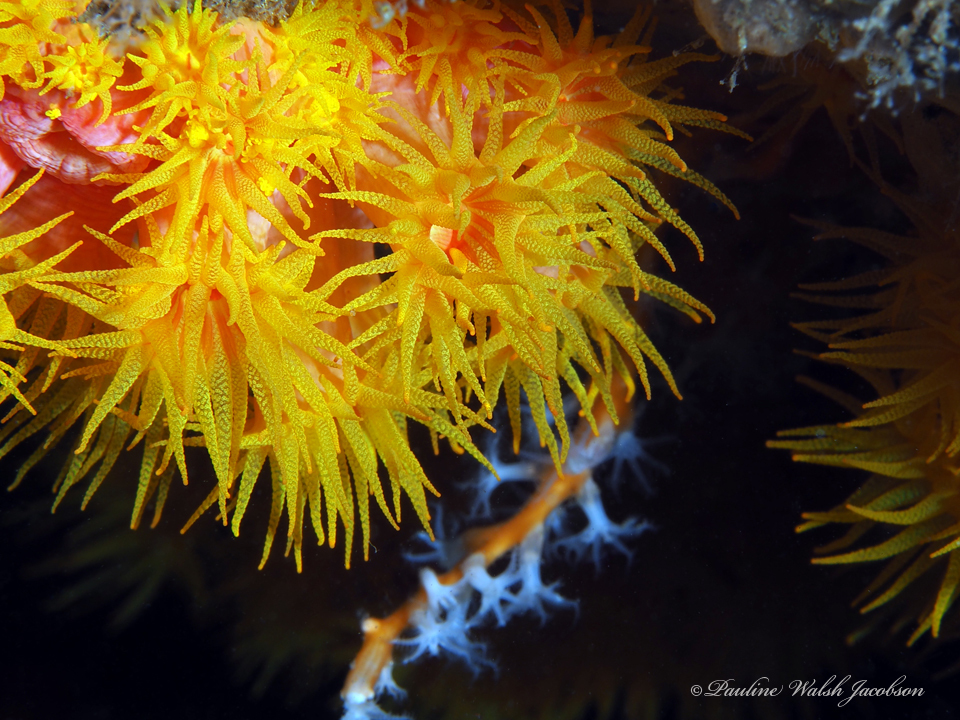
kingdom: Animalia
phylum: Cnidaria
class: Anthozoa
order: Scleractinia
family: Dendrophylliidae
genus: Tubastraea
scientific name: Tubastraea coccinea
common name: Orange cup coral
